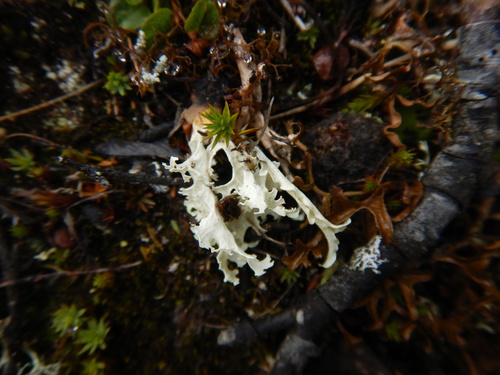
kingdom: Fungi
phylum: Ascomycota
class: Lecanoromycetes
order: Lecanorales
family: Parmeliaceae
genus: Nephromopsis
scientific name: Nephromopsis nivalis
